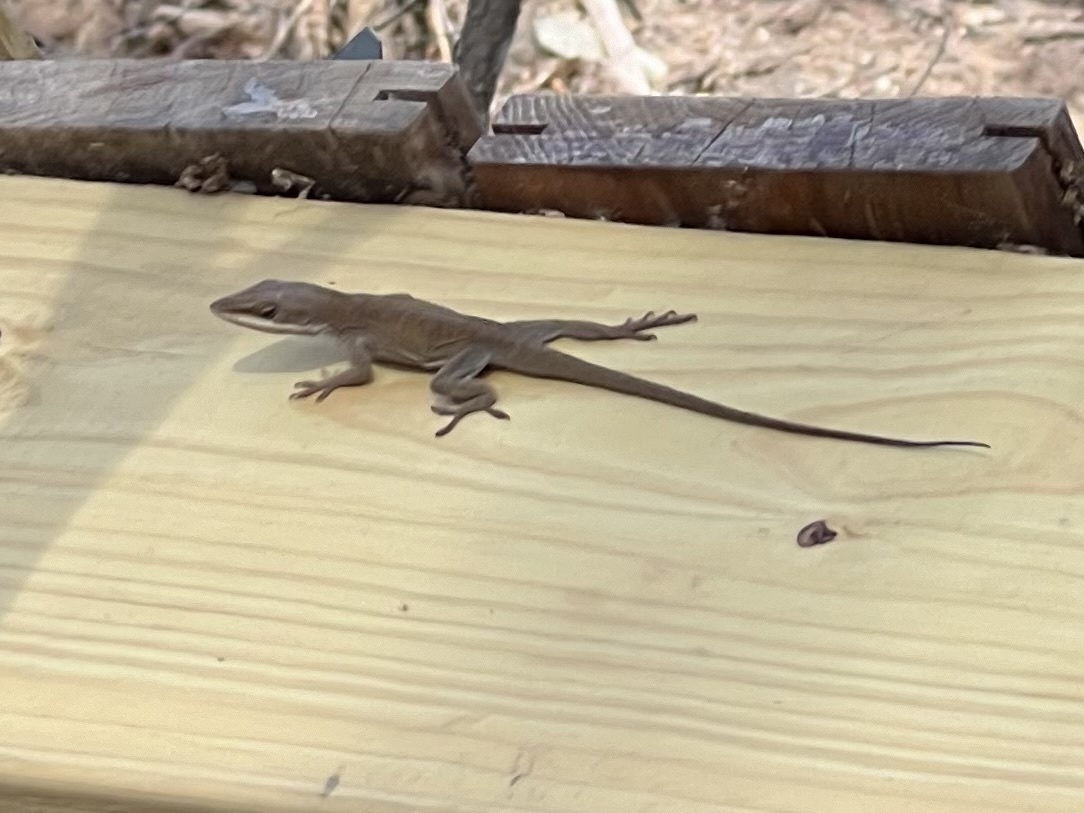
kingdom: Animalia
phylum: Chordata
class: Squamata
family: Dactyloidae
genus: Anolis
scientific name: Anolis carolinensis
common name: Green anole
